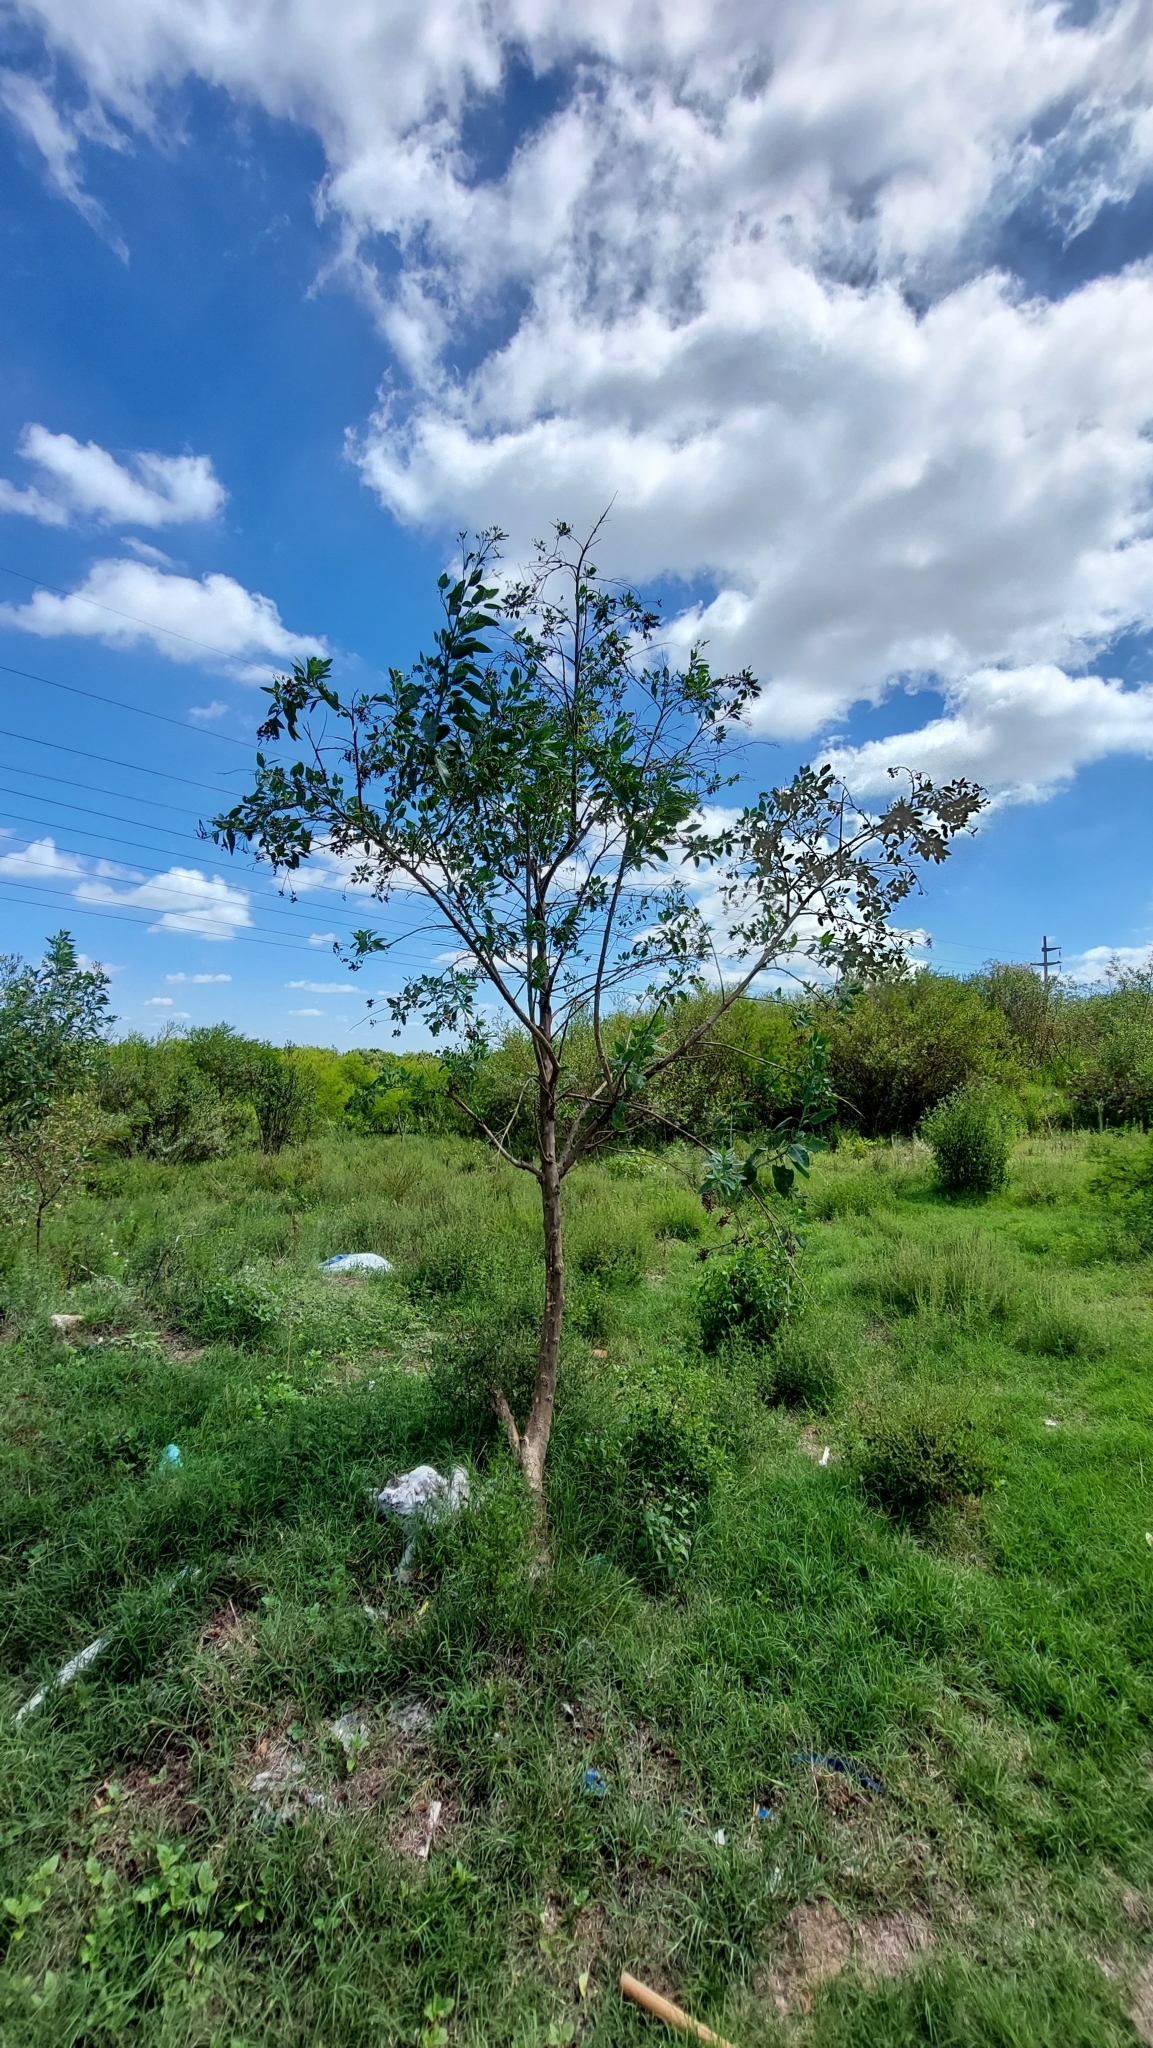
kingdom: Plantae
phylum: Tracheophyta
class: Magnoliopsida
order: Solanales
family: Solanaceae
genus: Nicotiana
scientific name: Nicotiana glauca
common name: Tree tobacco
